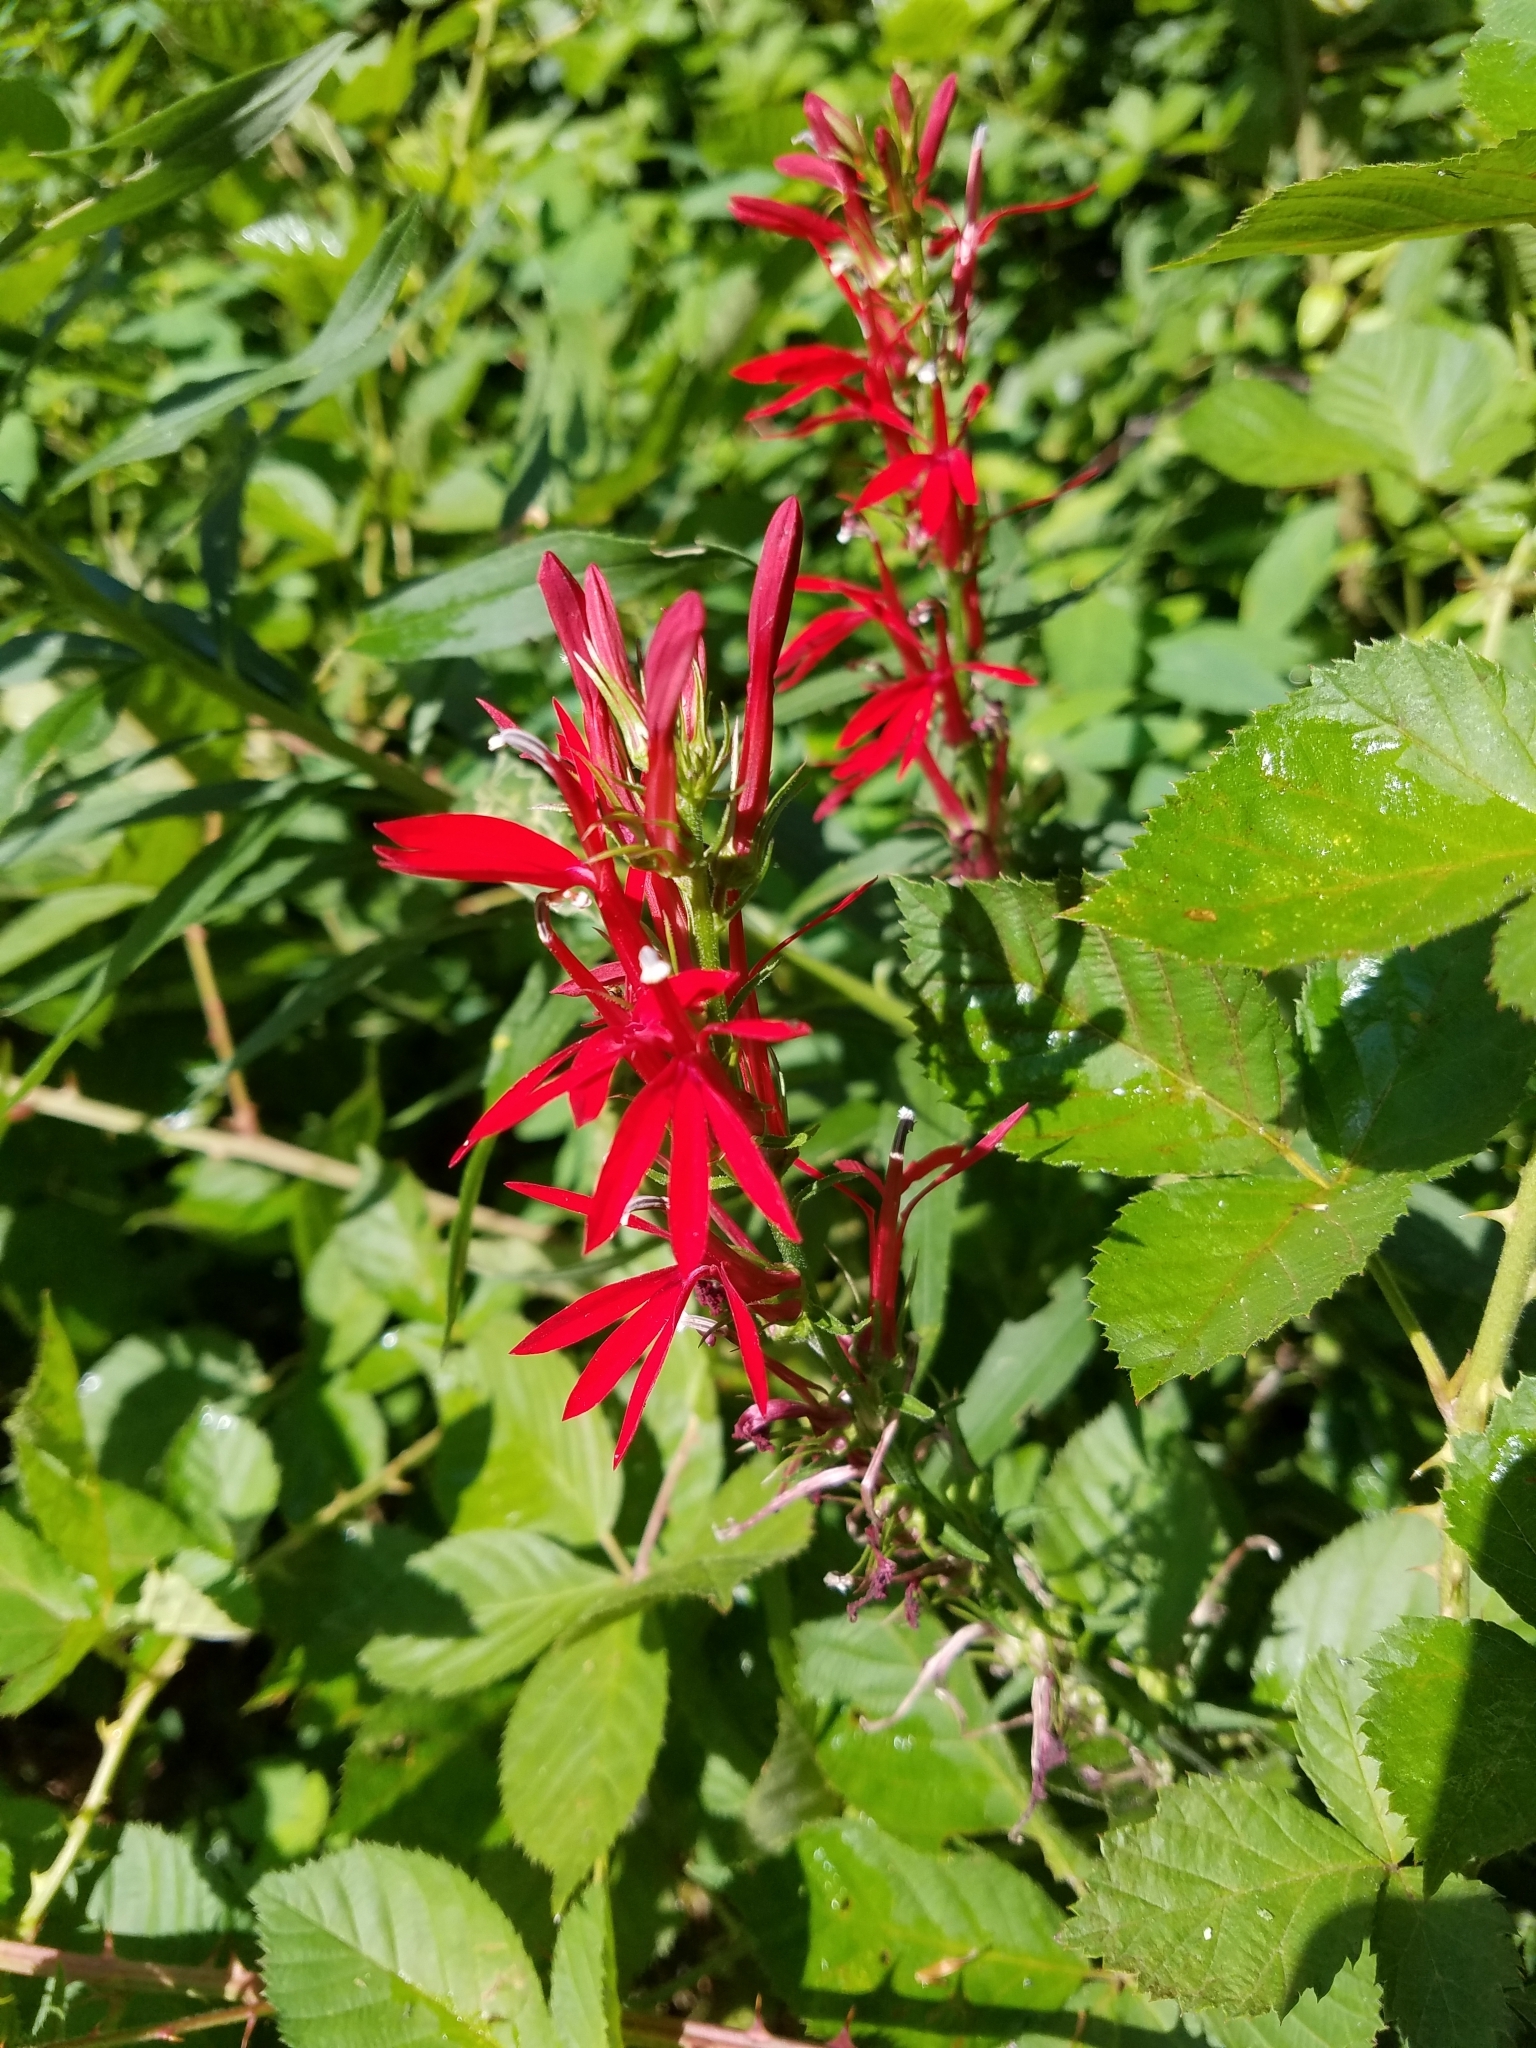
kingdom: Plantae
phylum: Tracheophyta
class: Magnoliopsida
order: Asterales
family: Campanulaceae
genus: Lobelia
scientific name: Lobelia cardinalis
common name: Cardinal flower
